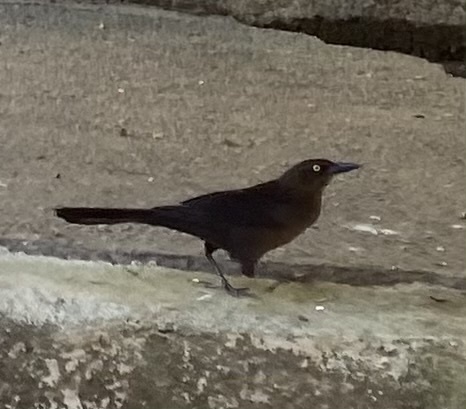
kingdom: Animalia
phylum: Chordata
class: Aves
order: Passeriformes
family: Icteridae
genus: Quiscalus
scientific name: Quiscalus mexicanus
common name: Great-tailed grackle
